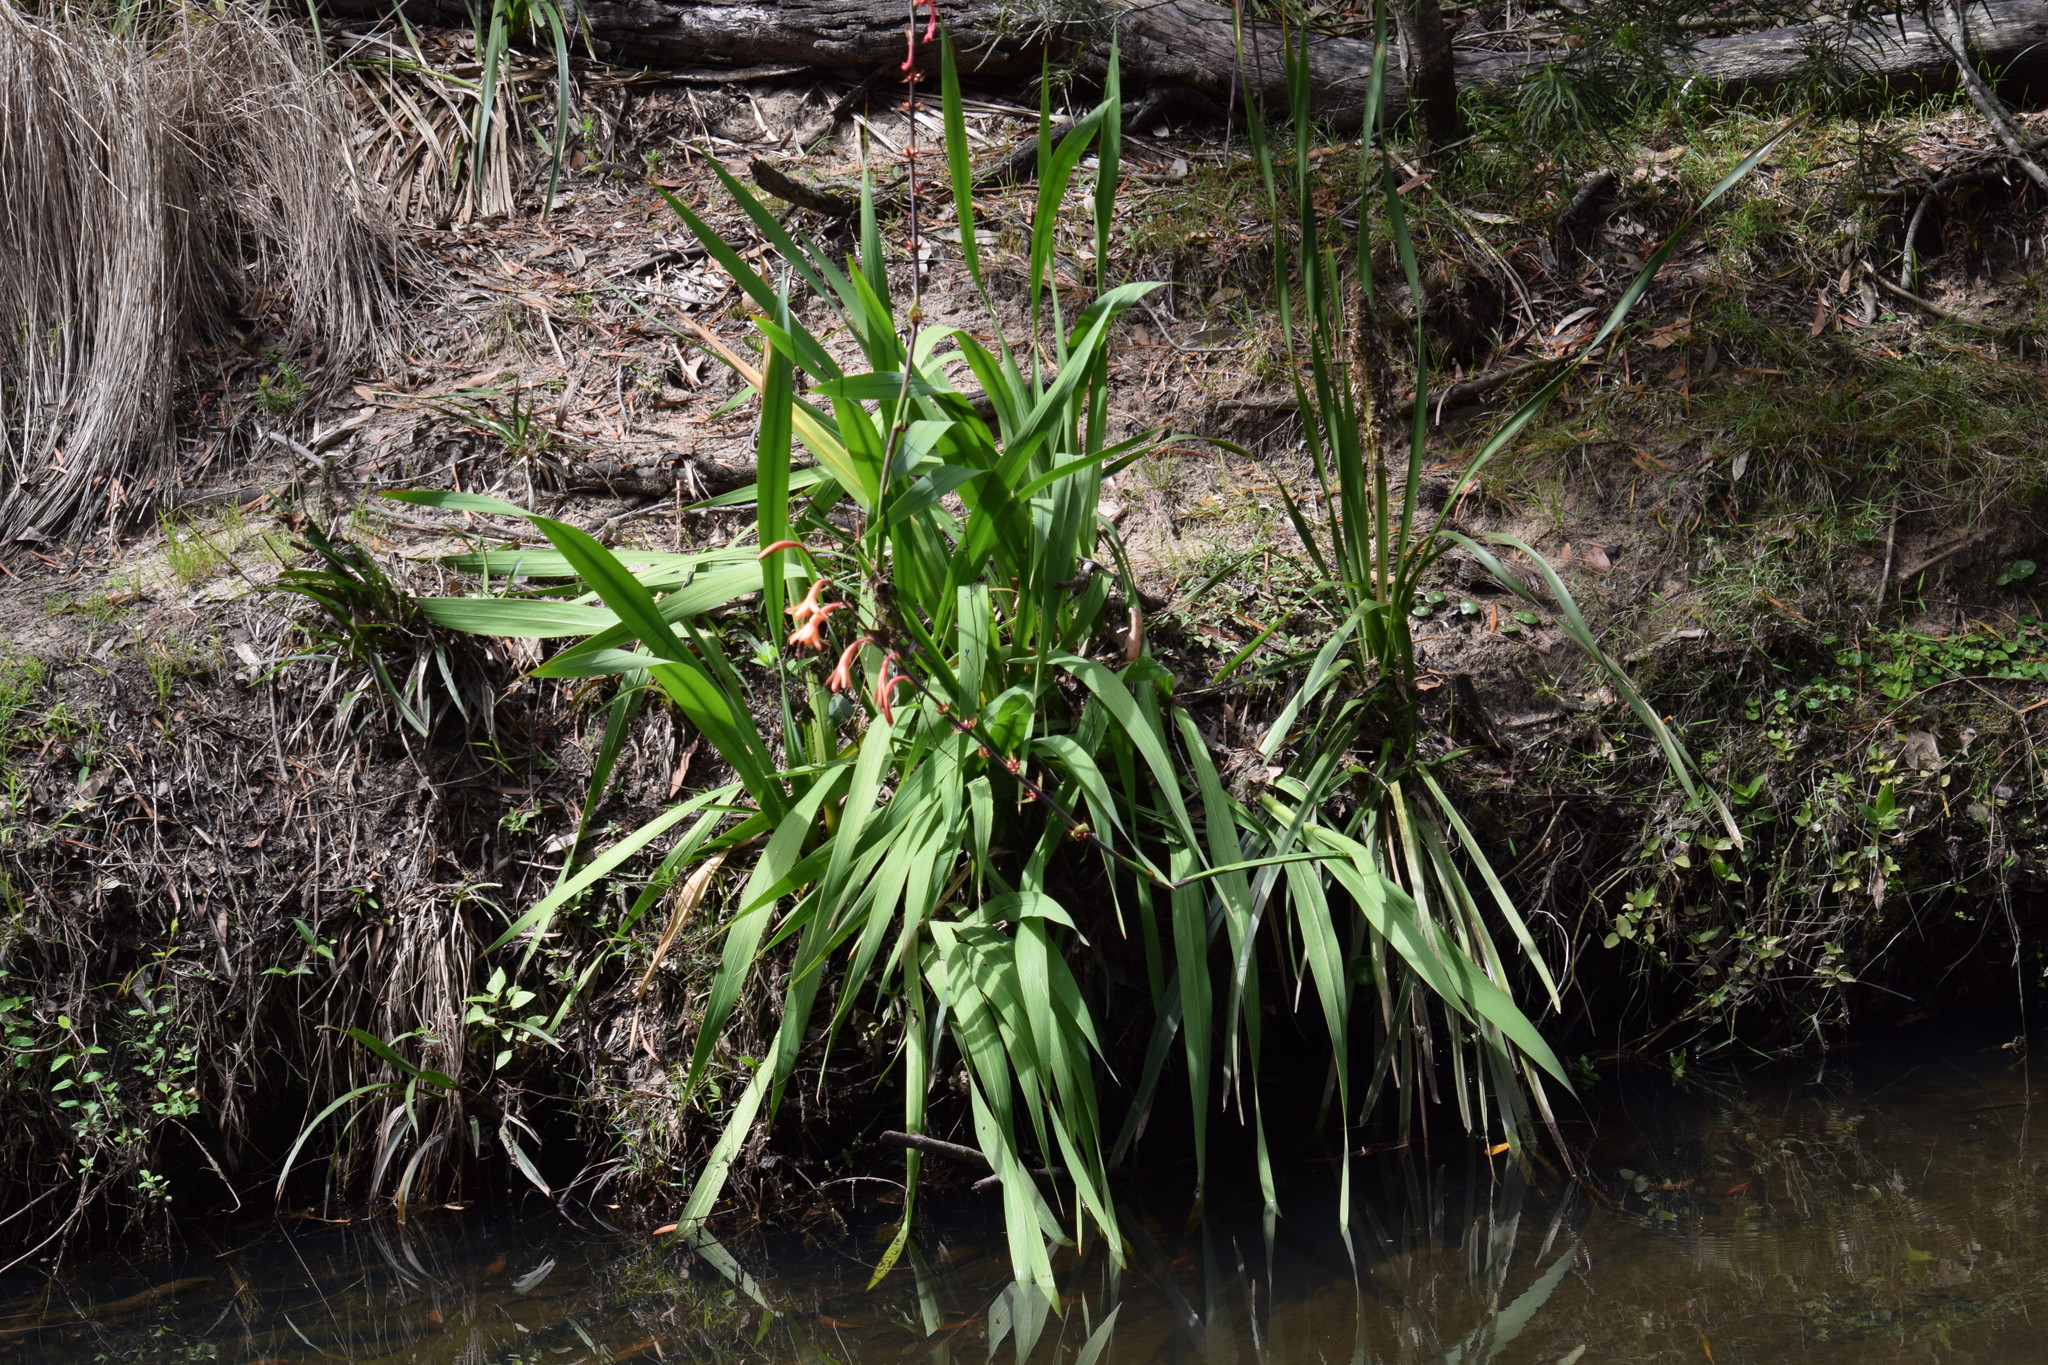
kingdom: Plantae
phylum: Tracheophyta
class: Liliopsida
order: Asparagales
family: Iridaceae
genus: Watsonia
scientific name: Watsonia meriana
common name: Bulbil bugle-lily
